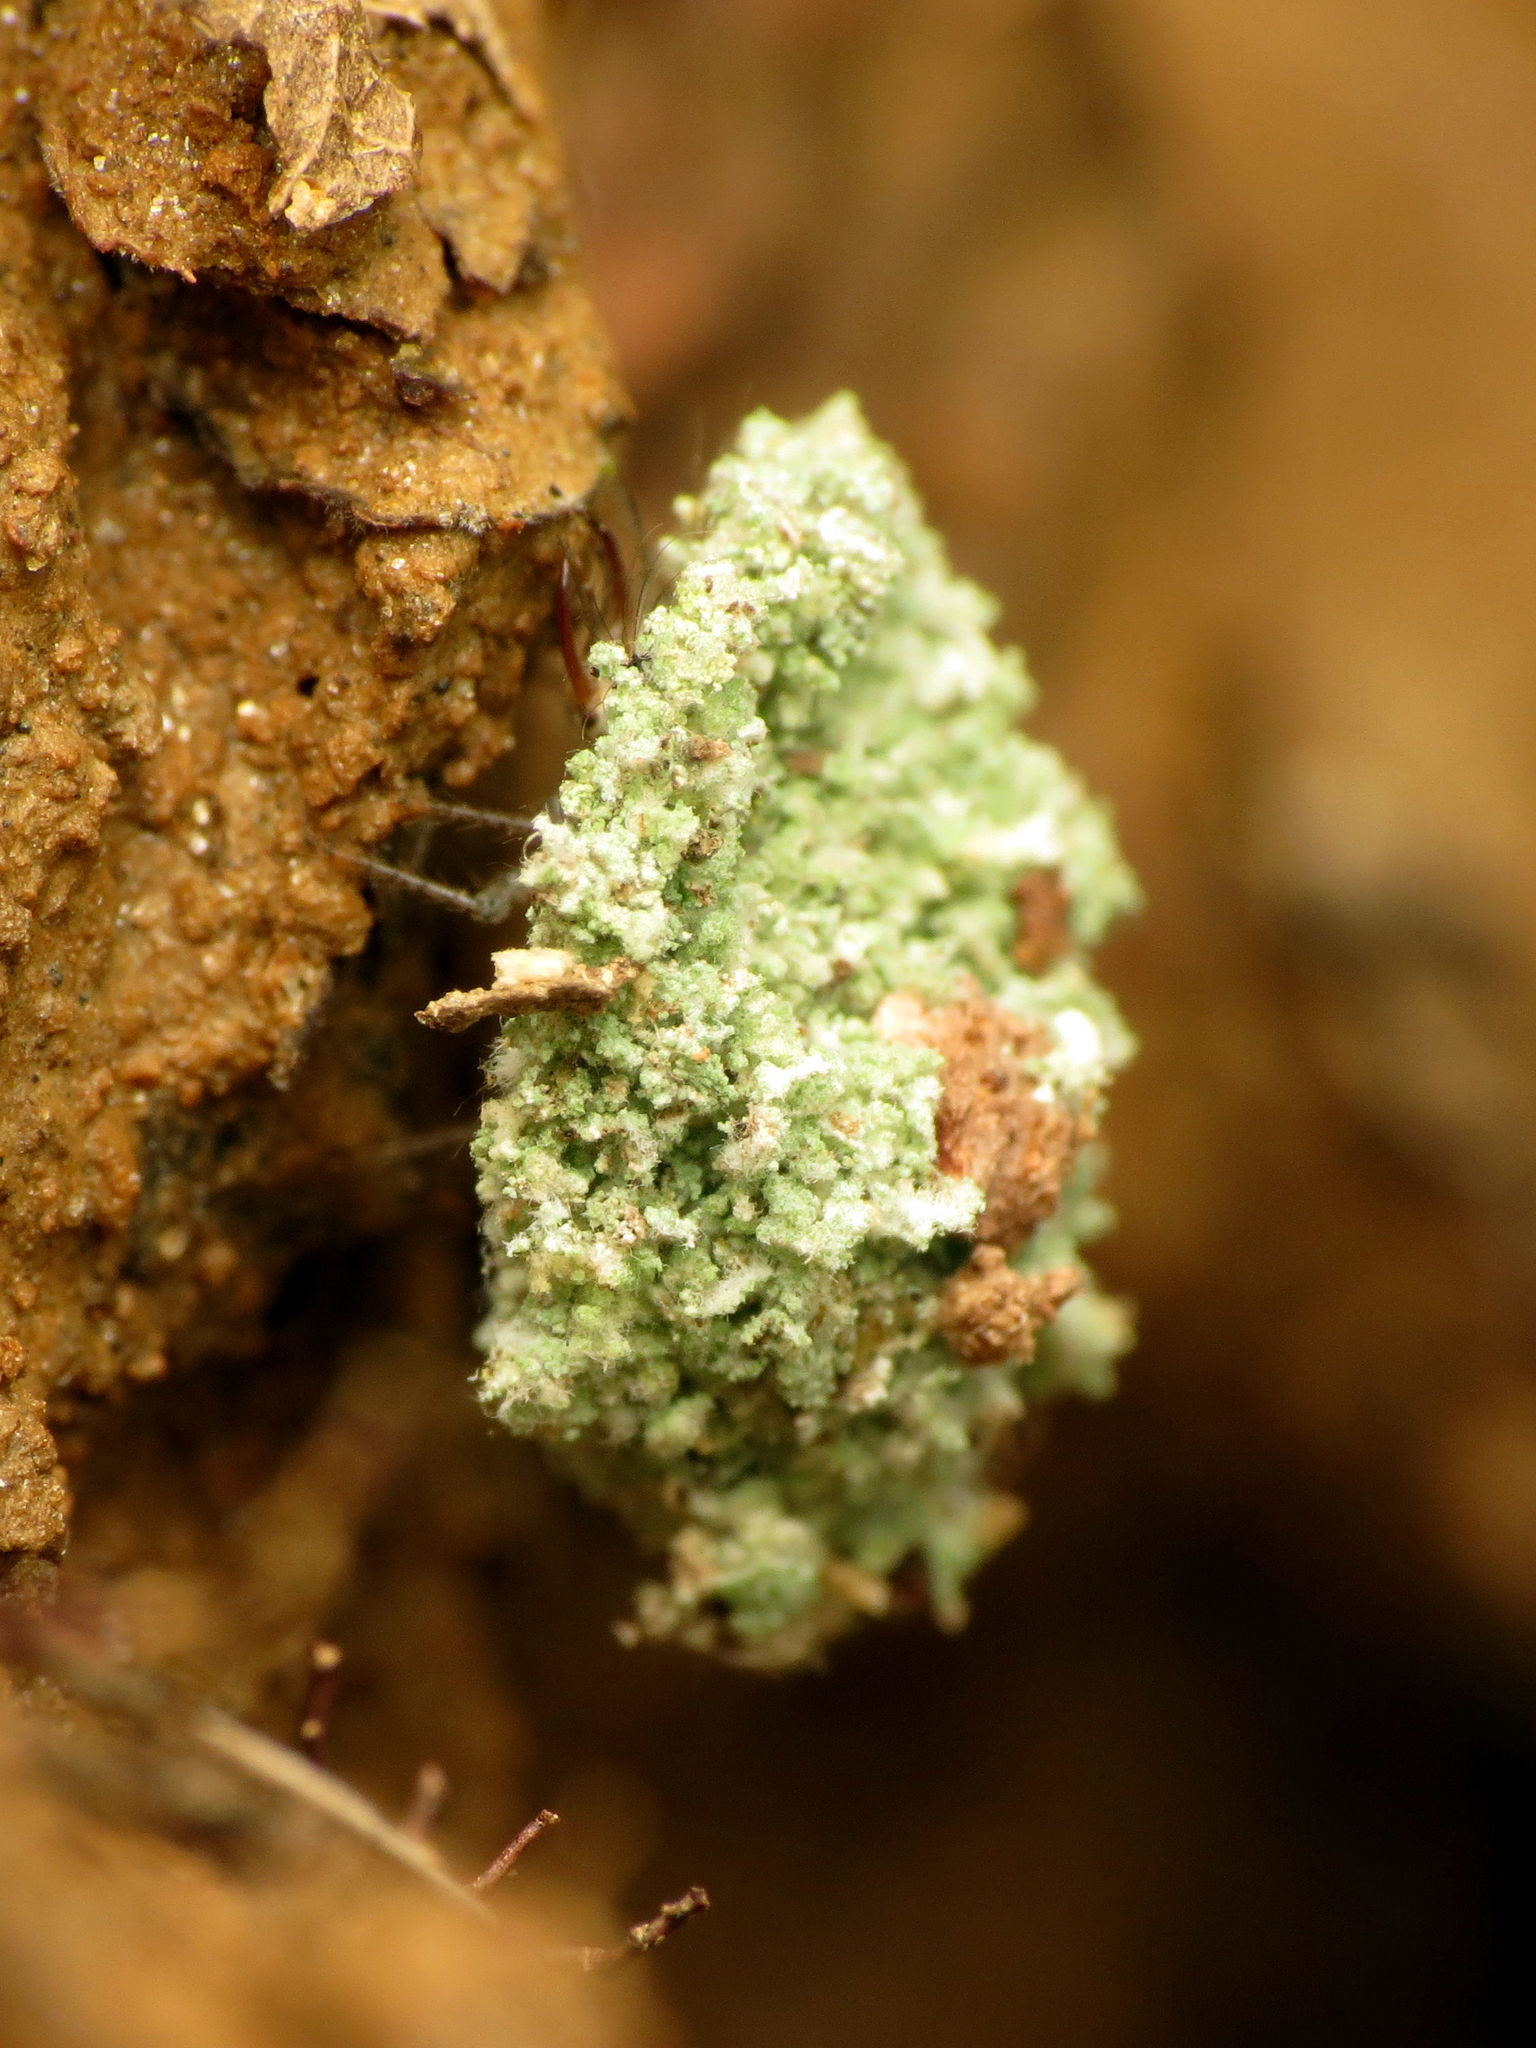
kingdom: Animalia
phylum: Arthropoda
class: Insecta
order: Neuroptera
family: Chrysopidae
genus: Leucochrysa
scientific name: Leucochrysa pavida
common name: Lichen-carrying green lacewing
